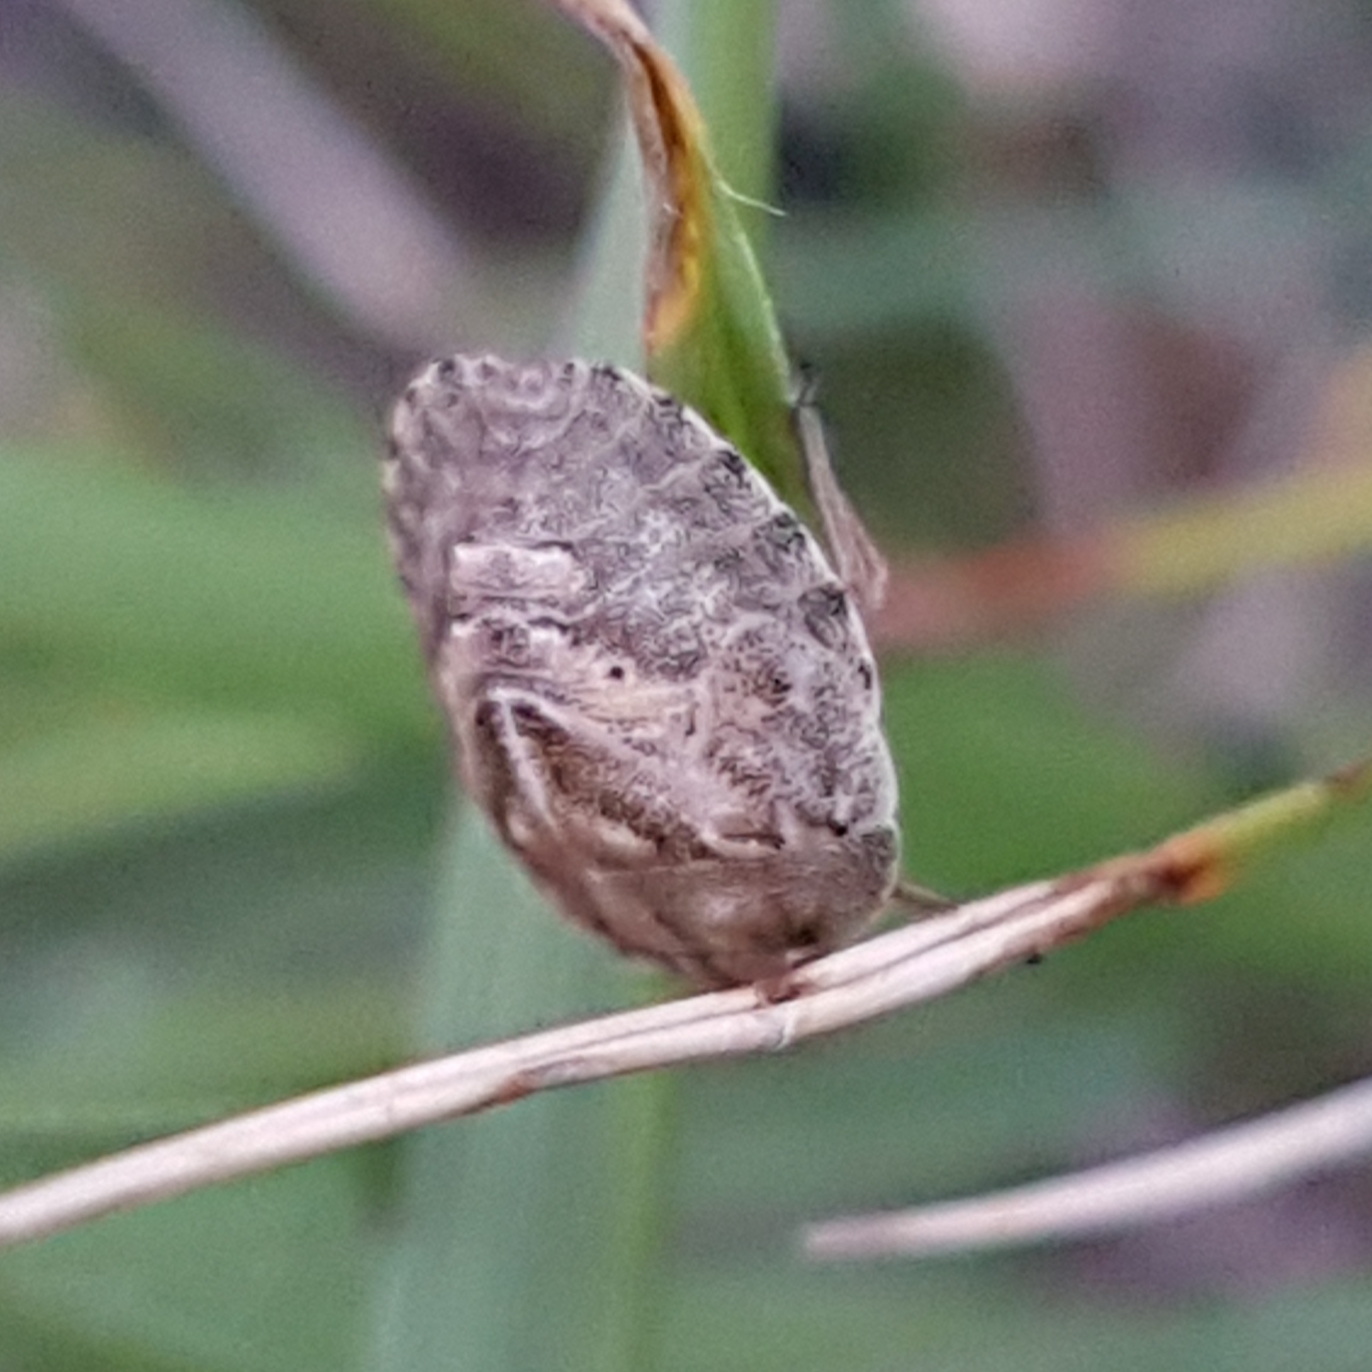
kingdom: Animalia
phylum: Arthropoda
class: Insecta
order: Hemiptera
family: Scutelleridae
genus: Eurygaster
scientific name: Eurygaster testudinaria
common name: Tortoise bug
